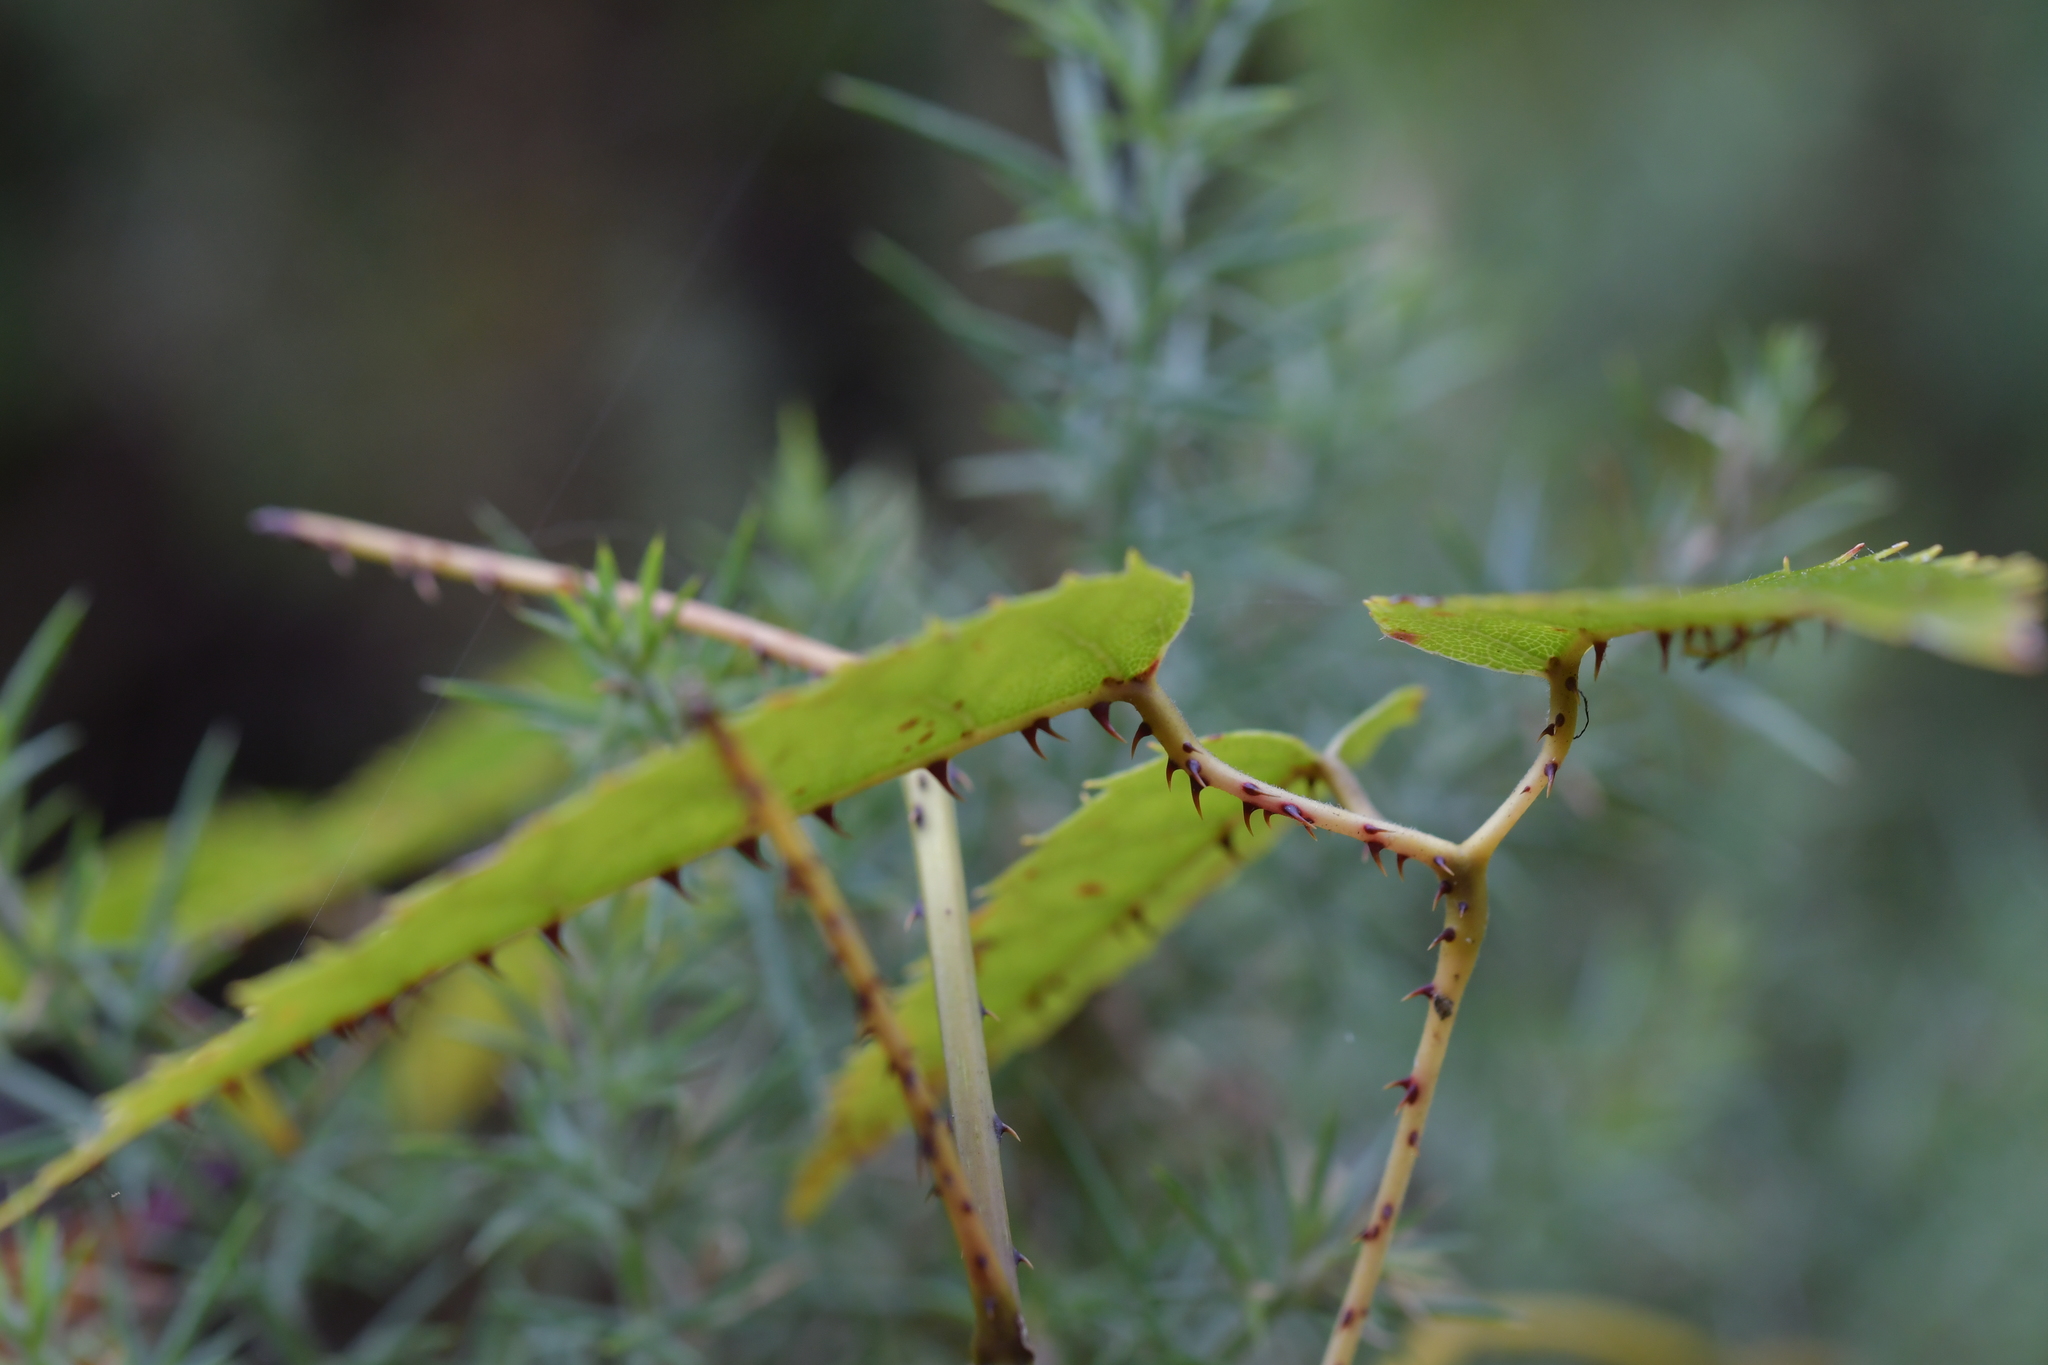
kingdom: Plantae
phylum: Tracheophyta
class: Magnoliopsida
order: Rosales
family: Rosaceae
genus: Rubus
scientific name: Rubus cissoides
